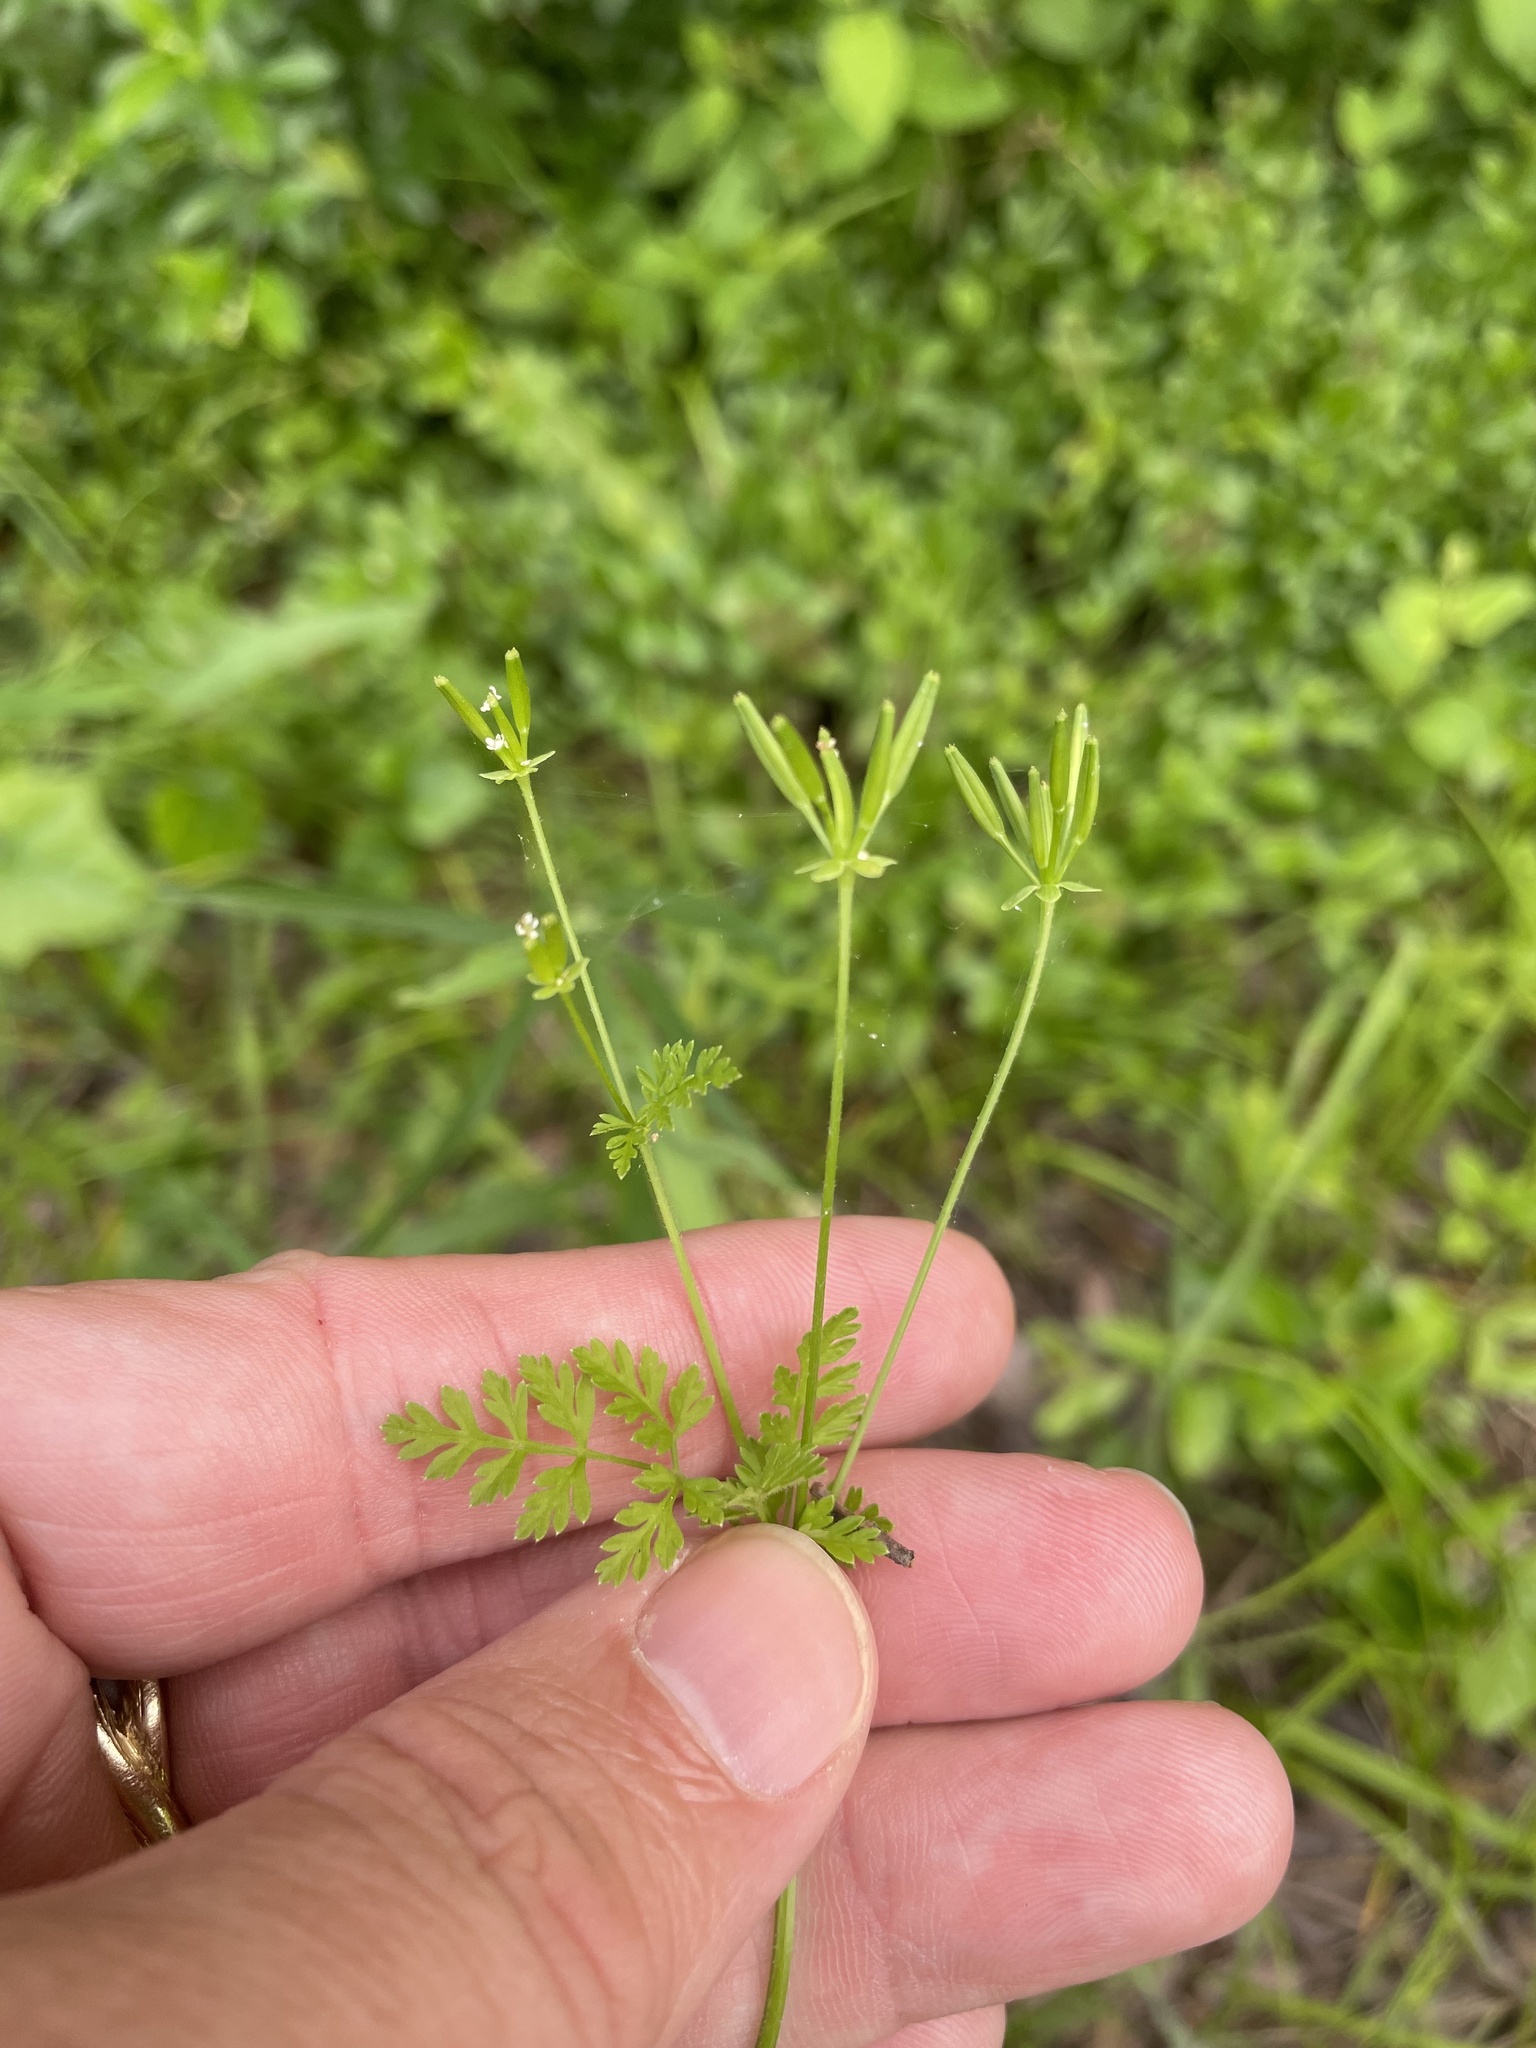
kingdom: Plantae
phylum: Tracheophyta
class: Magnoliopsida
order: Apiales
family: Apiaceae
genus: Chaerophyllum
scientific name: Chaerophyllum tainturieri
